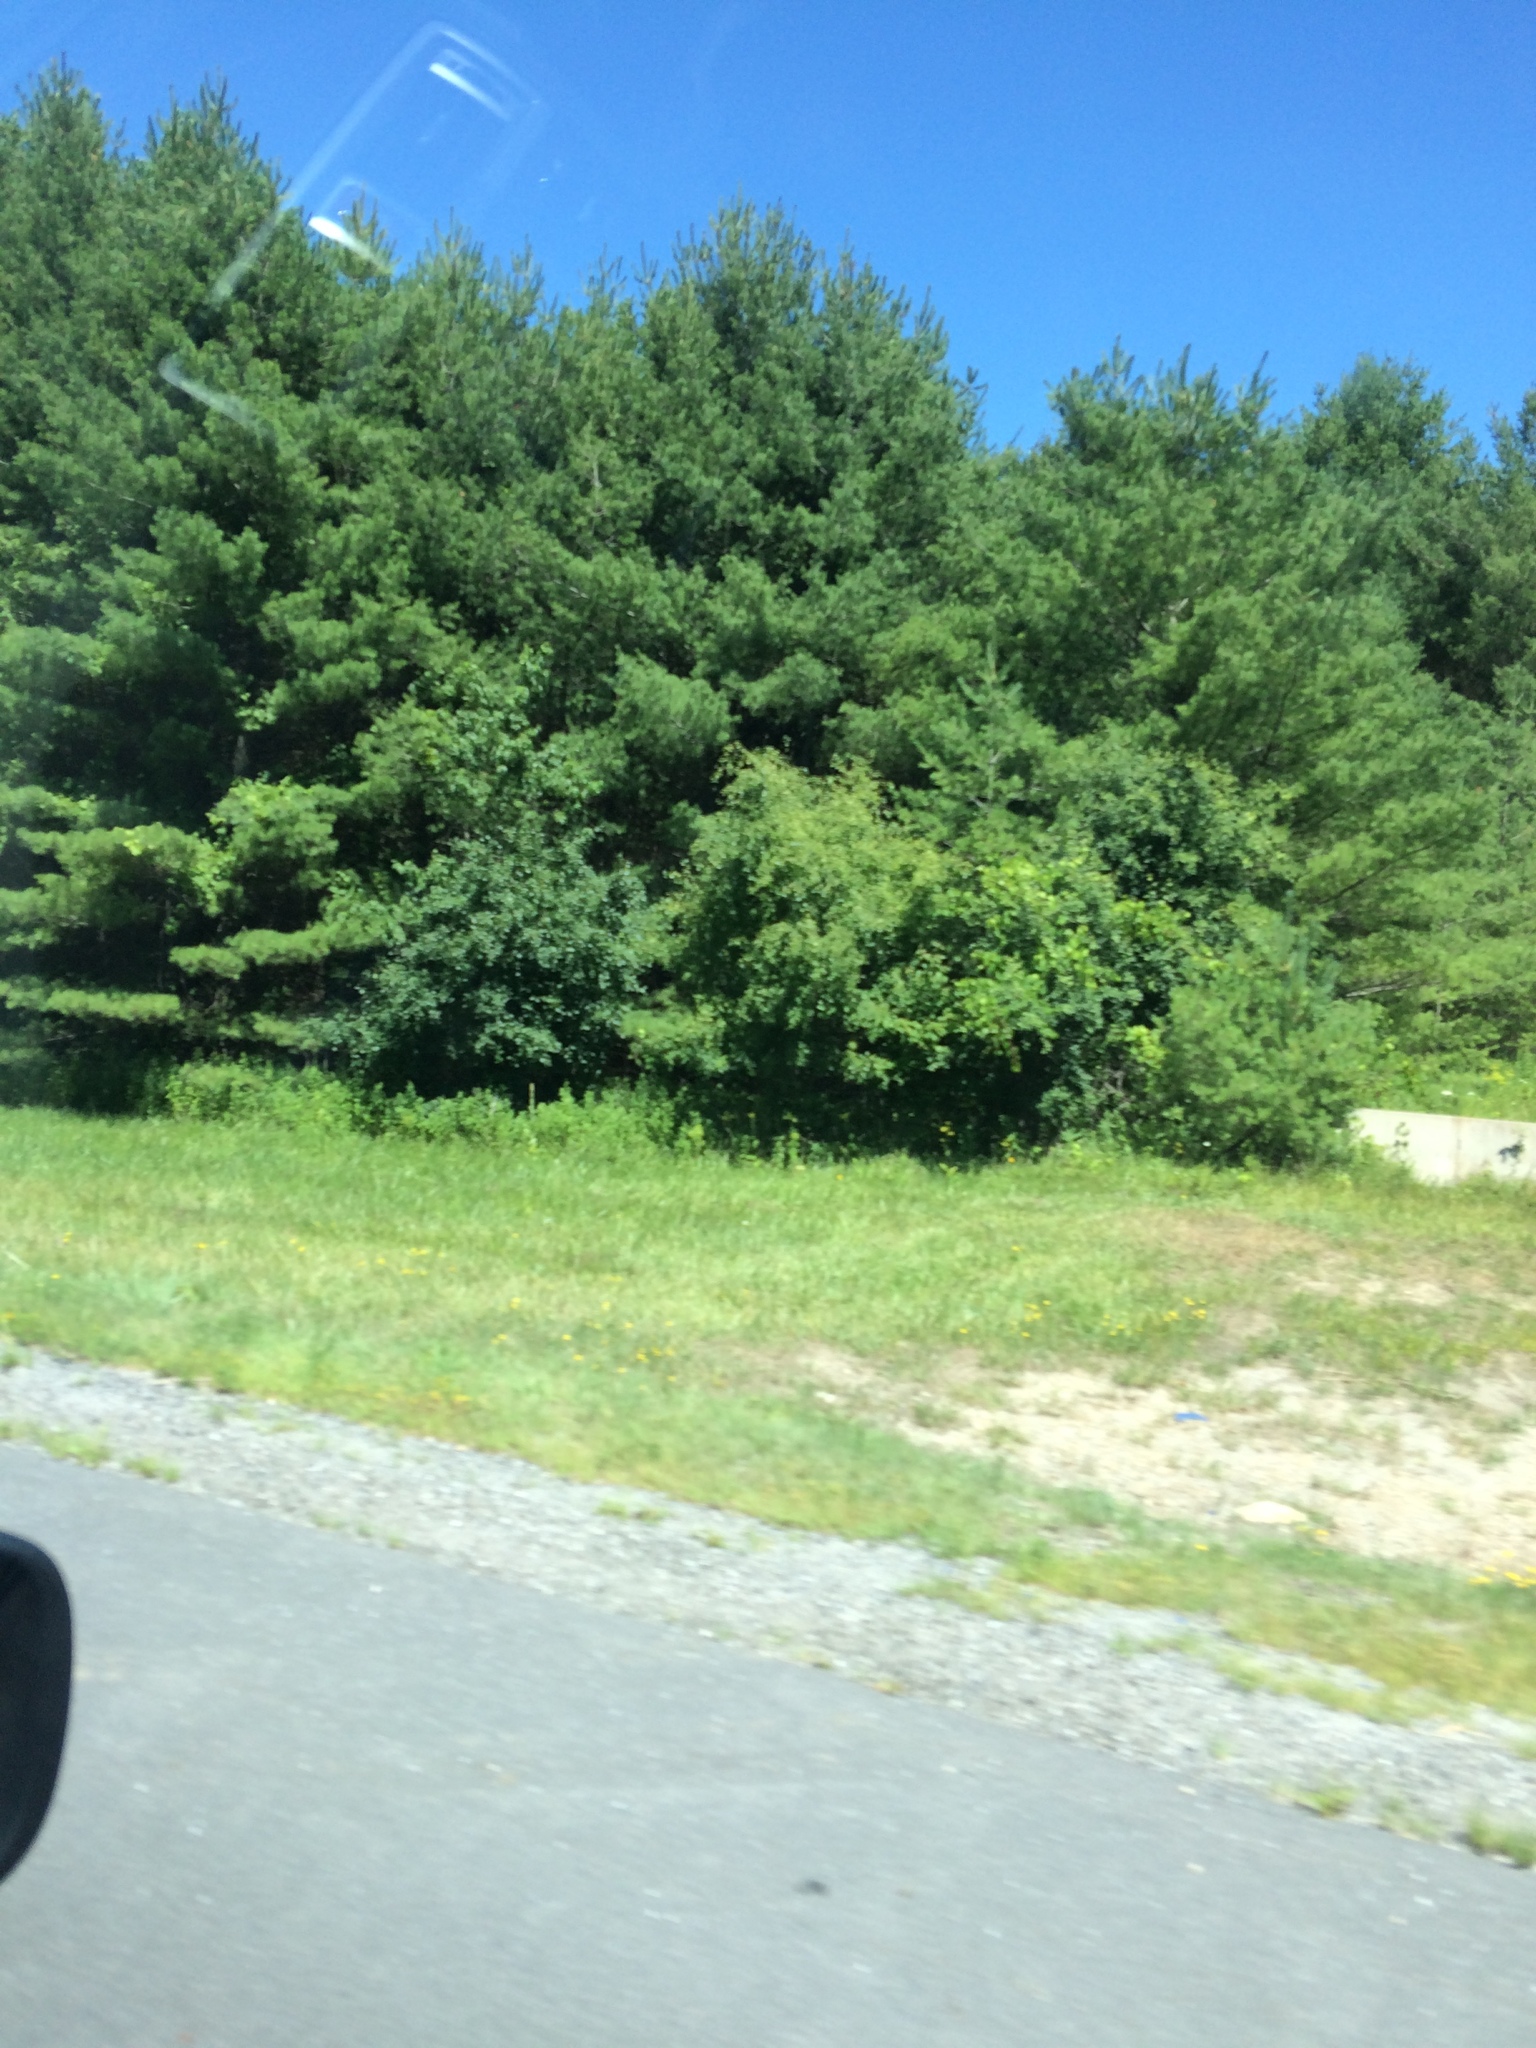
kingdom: Plantae
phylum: Tracheophyta
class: Pinopsida
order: Pinales
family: Pinaceae
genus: Pinus
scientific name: Pinus strobus
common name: Weymouth pine
